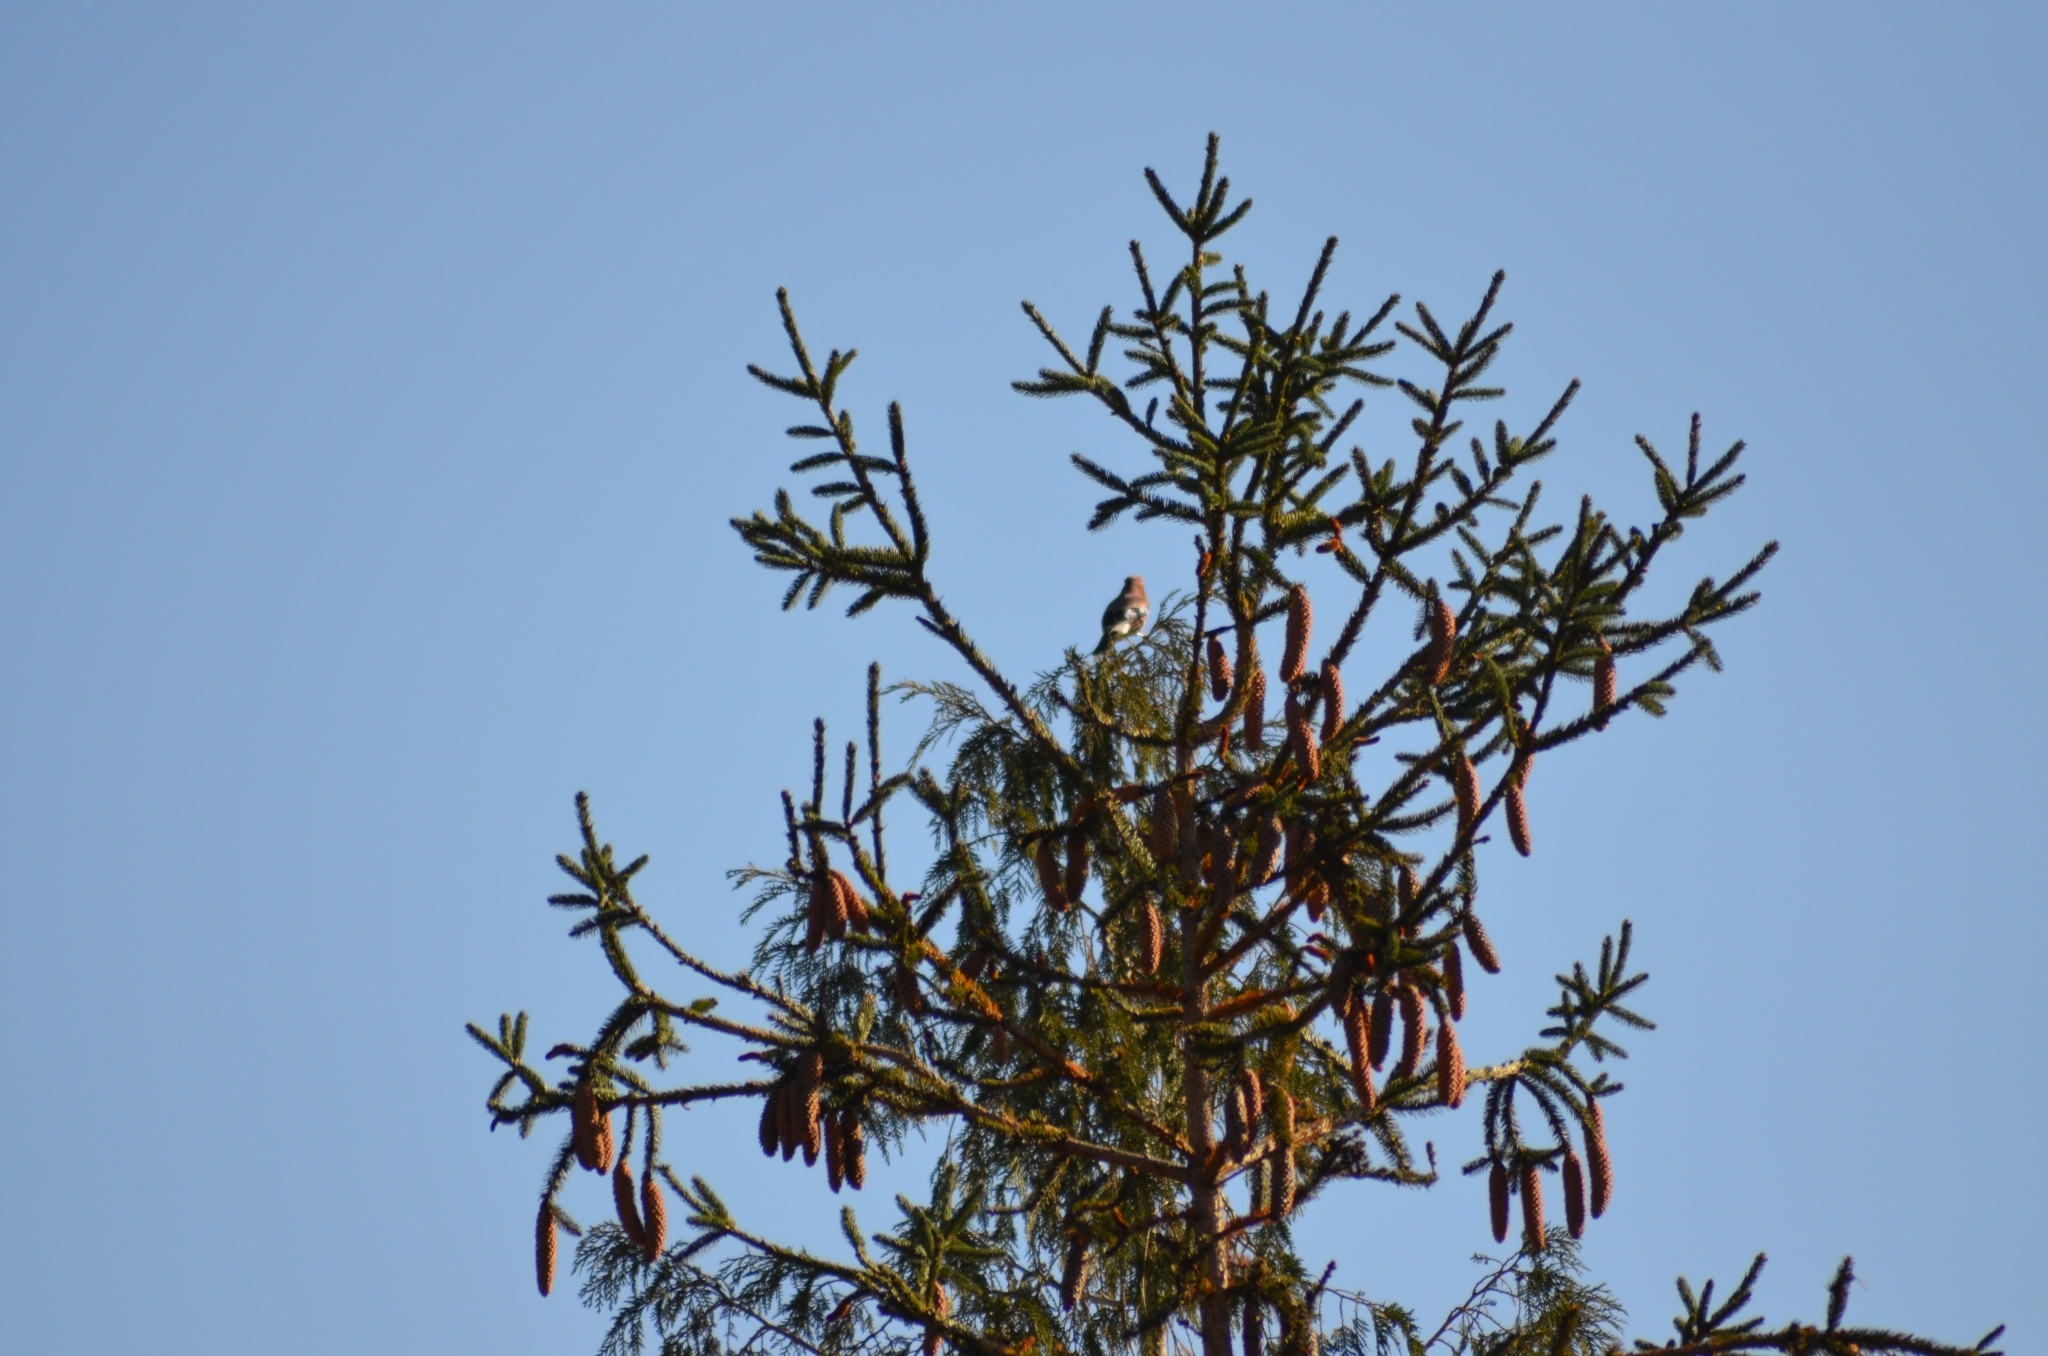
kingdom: Animalia
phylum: Chordata
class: Aves
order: Passeriformes
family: Corvidae
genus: Garrulus
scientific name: Garrulus glandarius
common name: Eurasian jay
